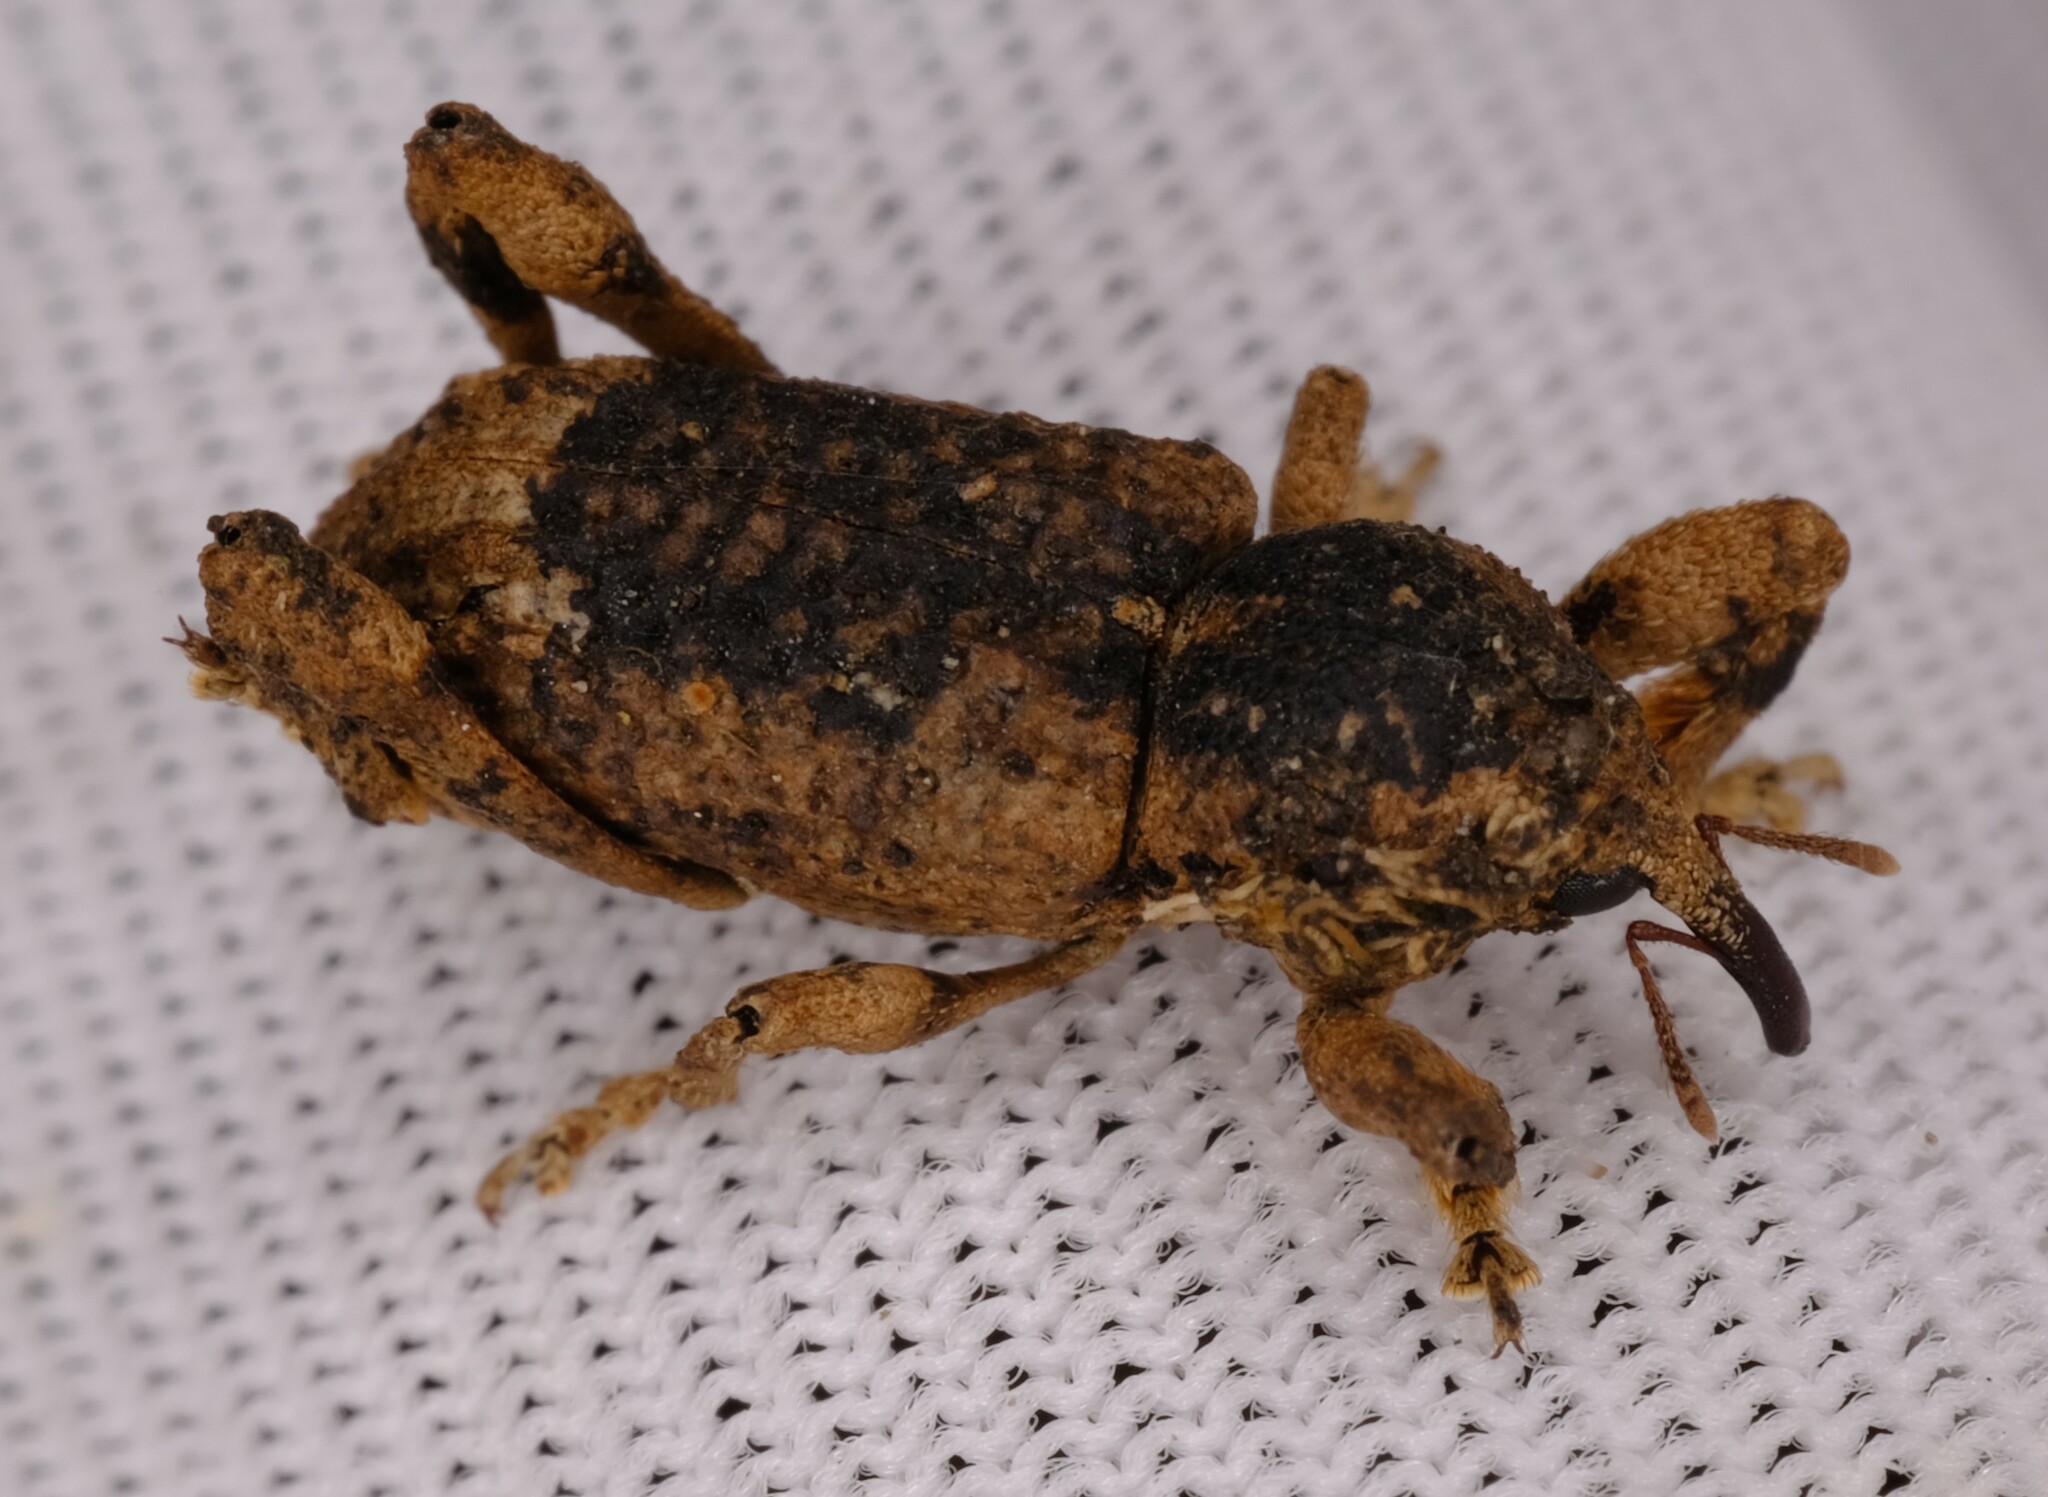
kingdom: Animalia
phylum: Arthropoda
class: Insecta
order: Coleoptera
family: Curculionidae
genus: Camptorhinus
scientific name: Camptorhinus dorsalis
